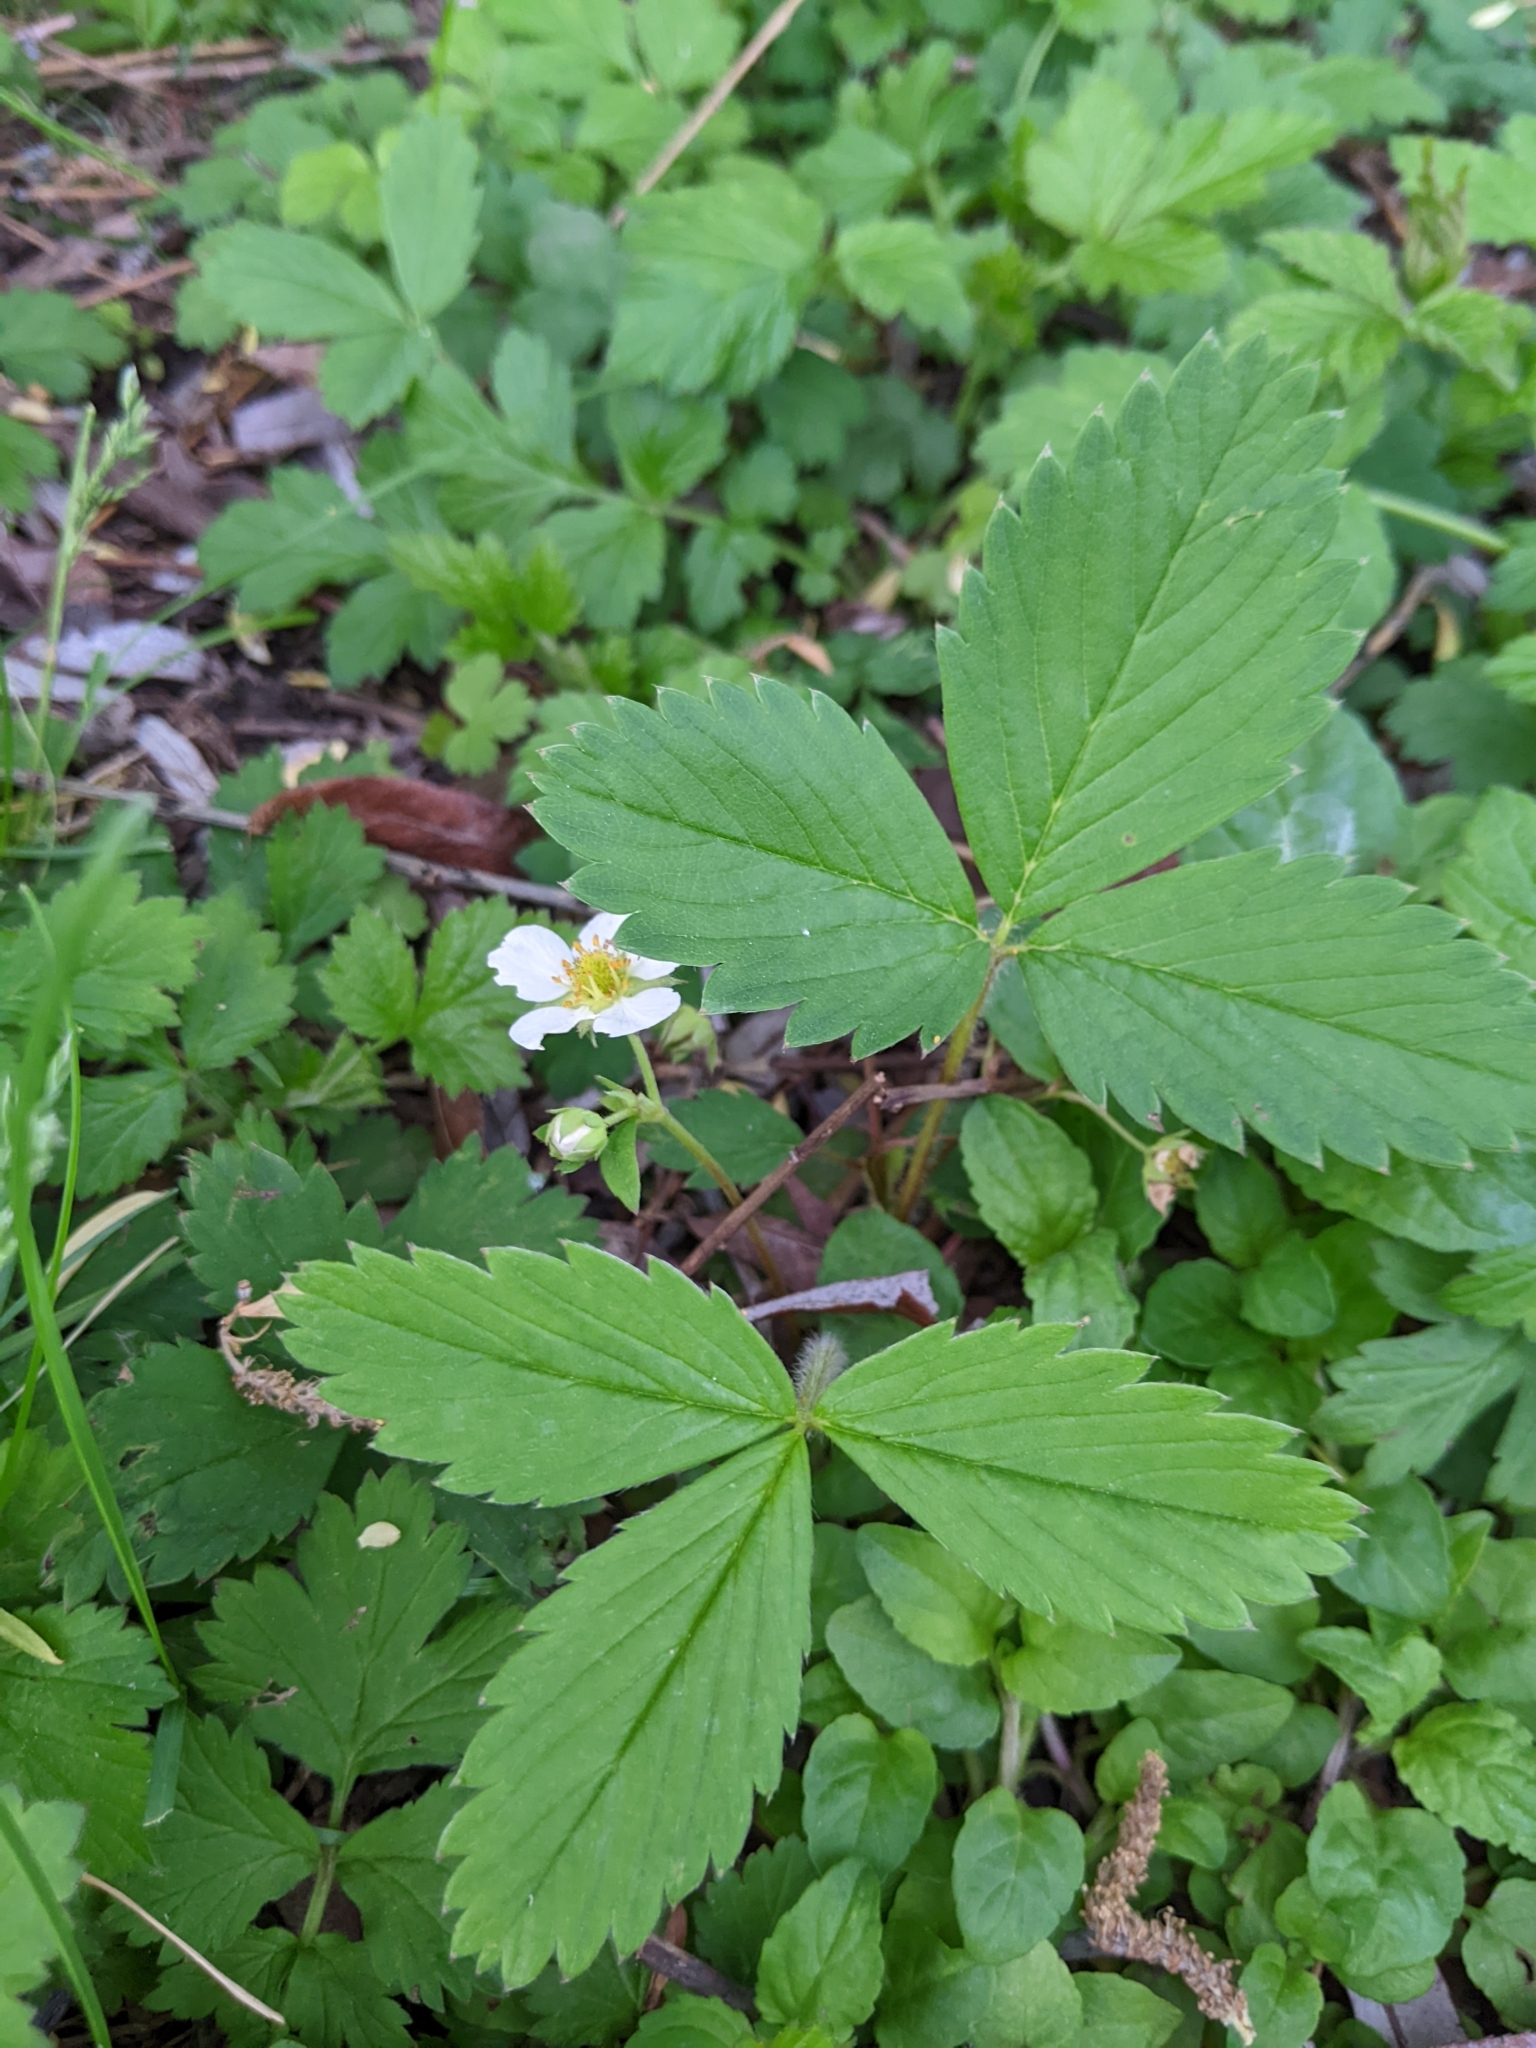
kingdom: Plantae
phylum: Tracheophyta
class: Magnoliopsida
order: Rosales
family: Rosaceae
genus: Fragaria
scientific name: Fragaria virginiana
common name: Thickleaved wild strawberry
